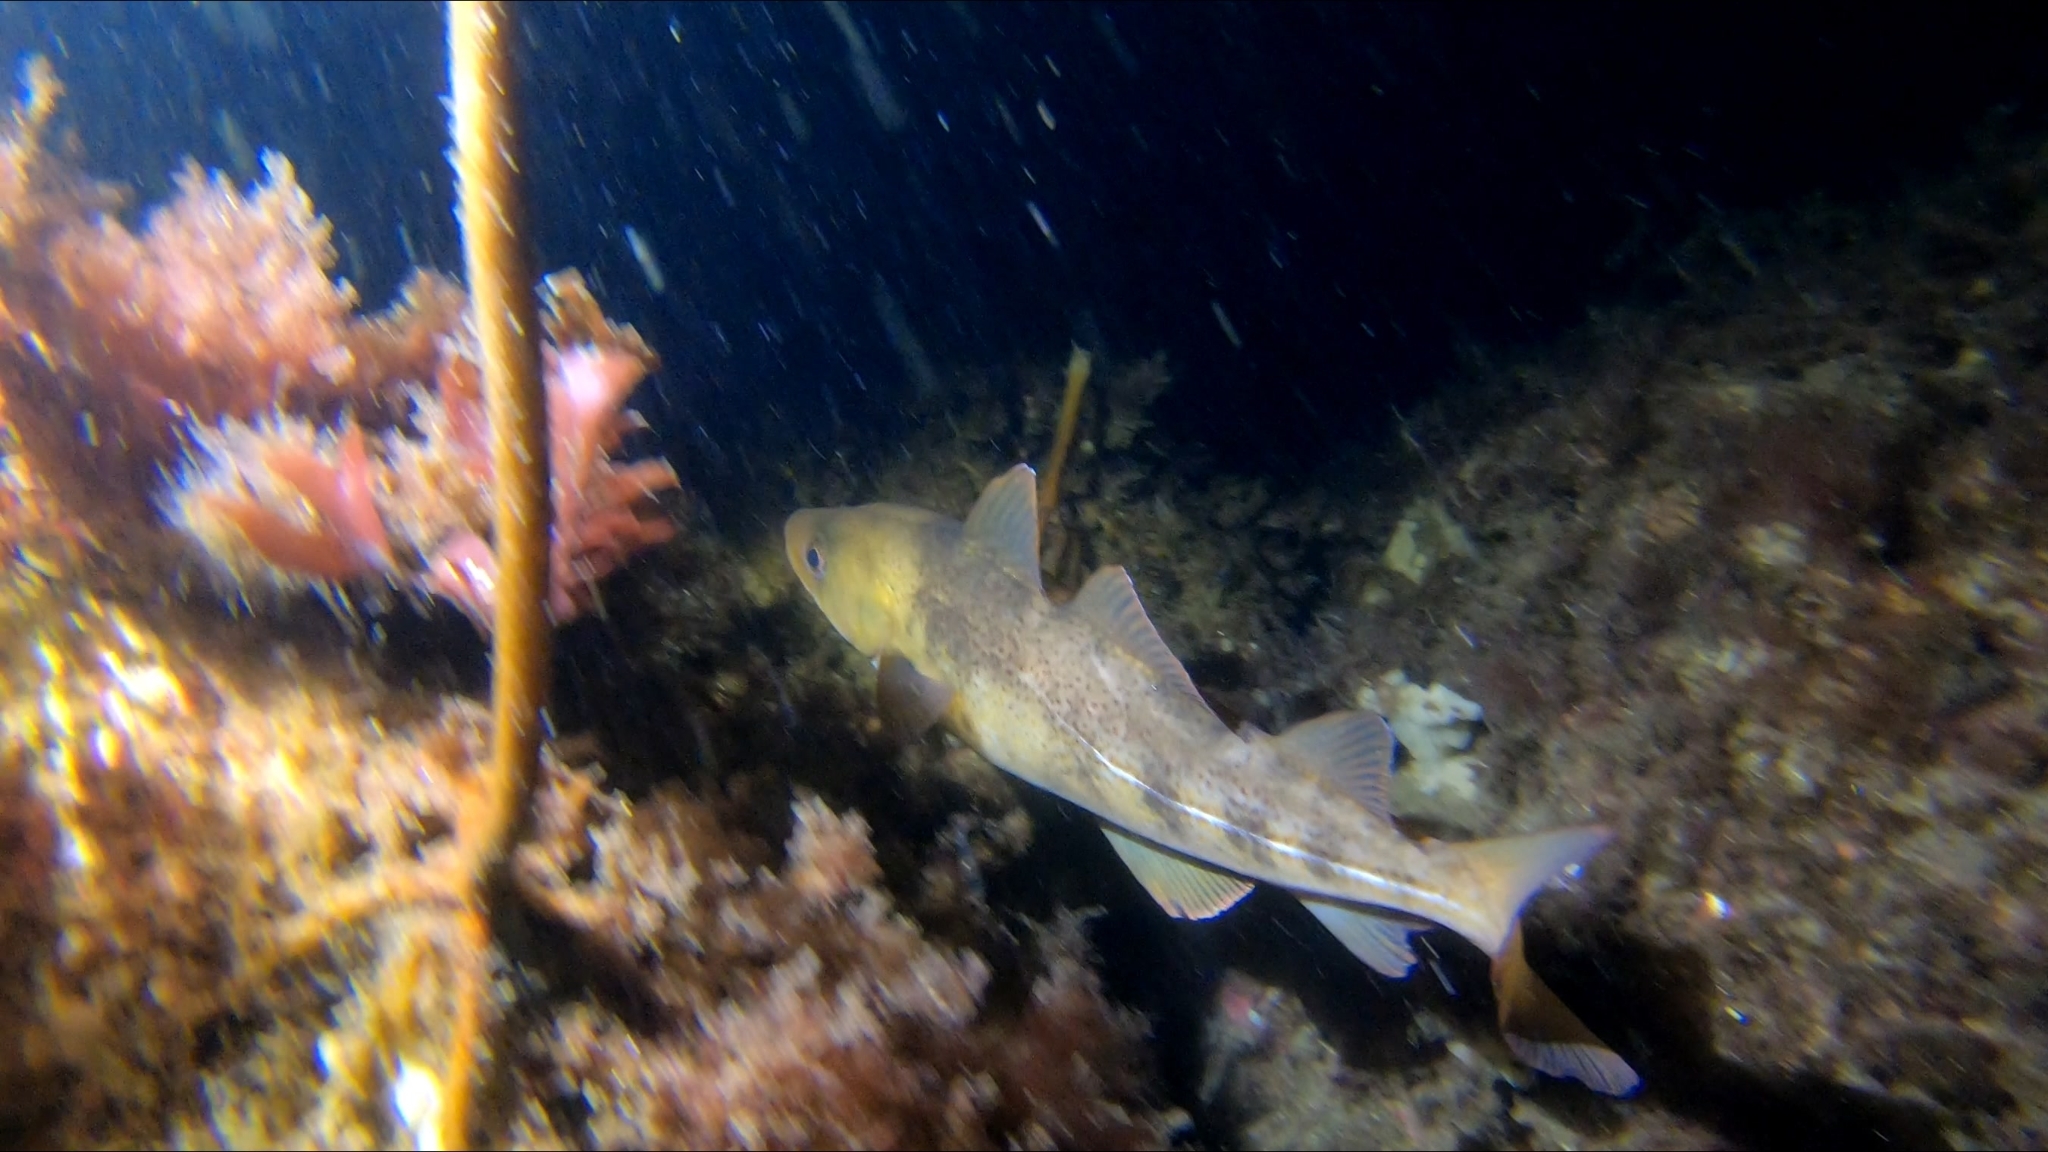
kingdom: Animalia
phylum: Chordata
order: Gadiformes
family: Gadidae
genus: Gadus
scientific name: Gadus morhua
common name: Atlantic cod
